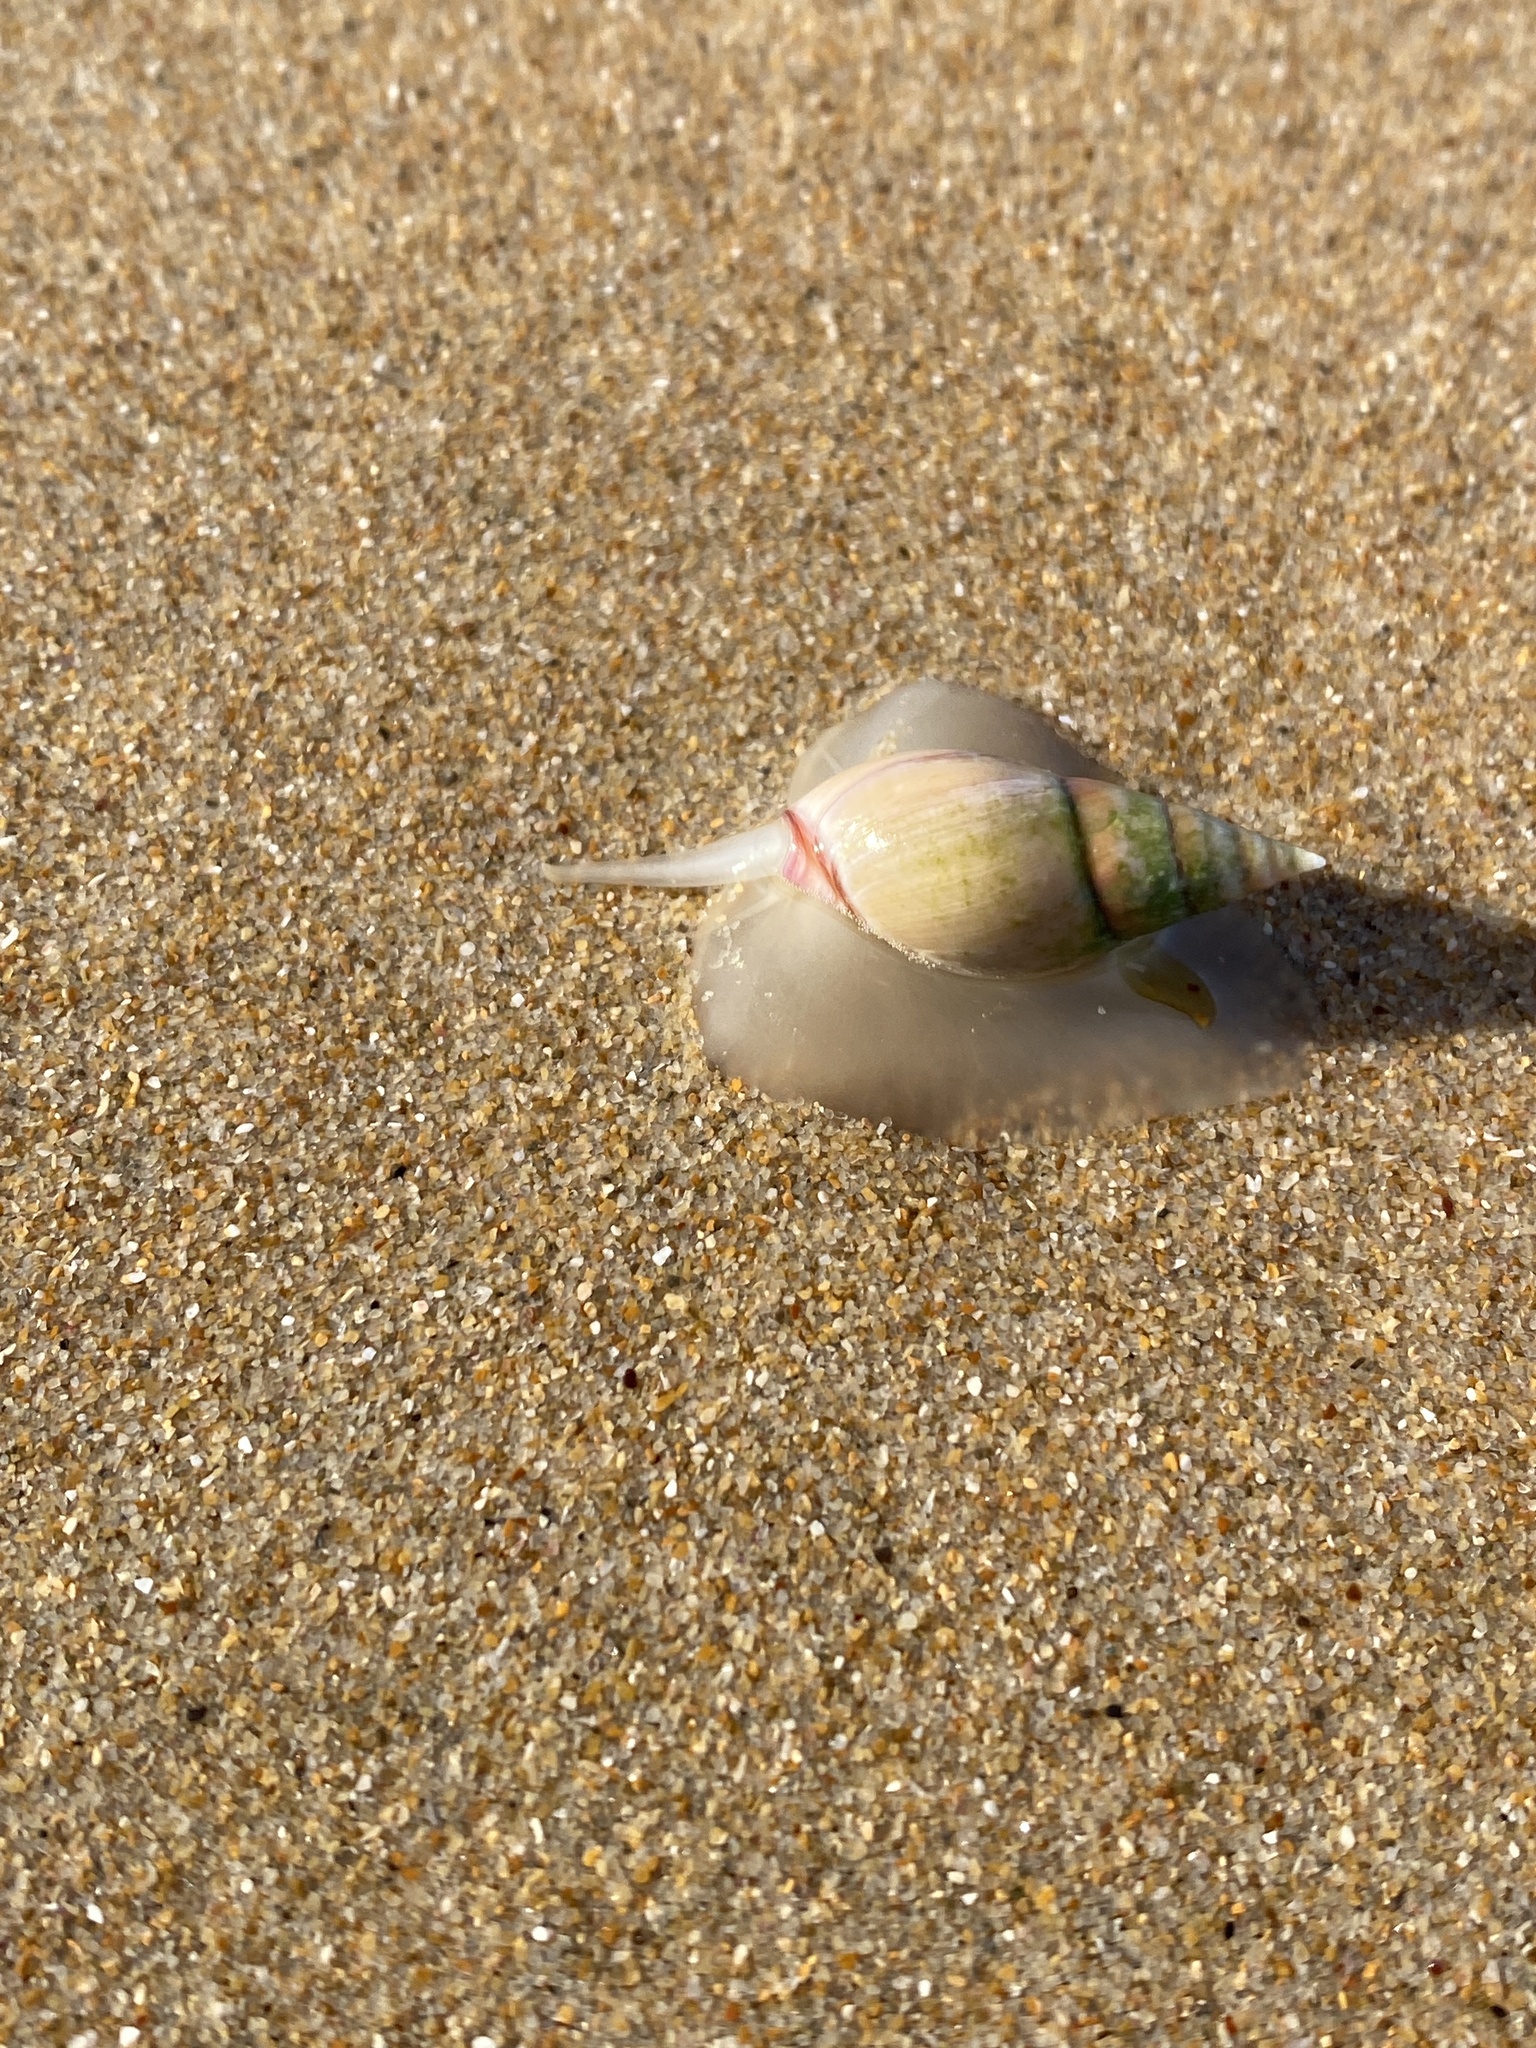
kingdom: Animalia
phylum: Mollusca
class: Gastropoda
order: Neogastropoda
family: Nassariidae
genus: Bullia
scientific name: Bullia rhodostoma
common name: Smooth plough shell
